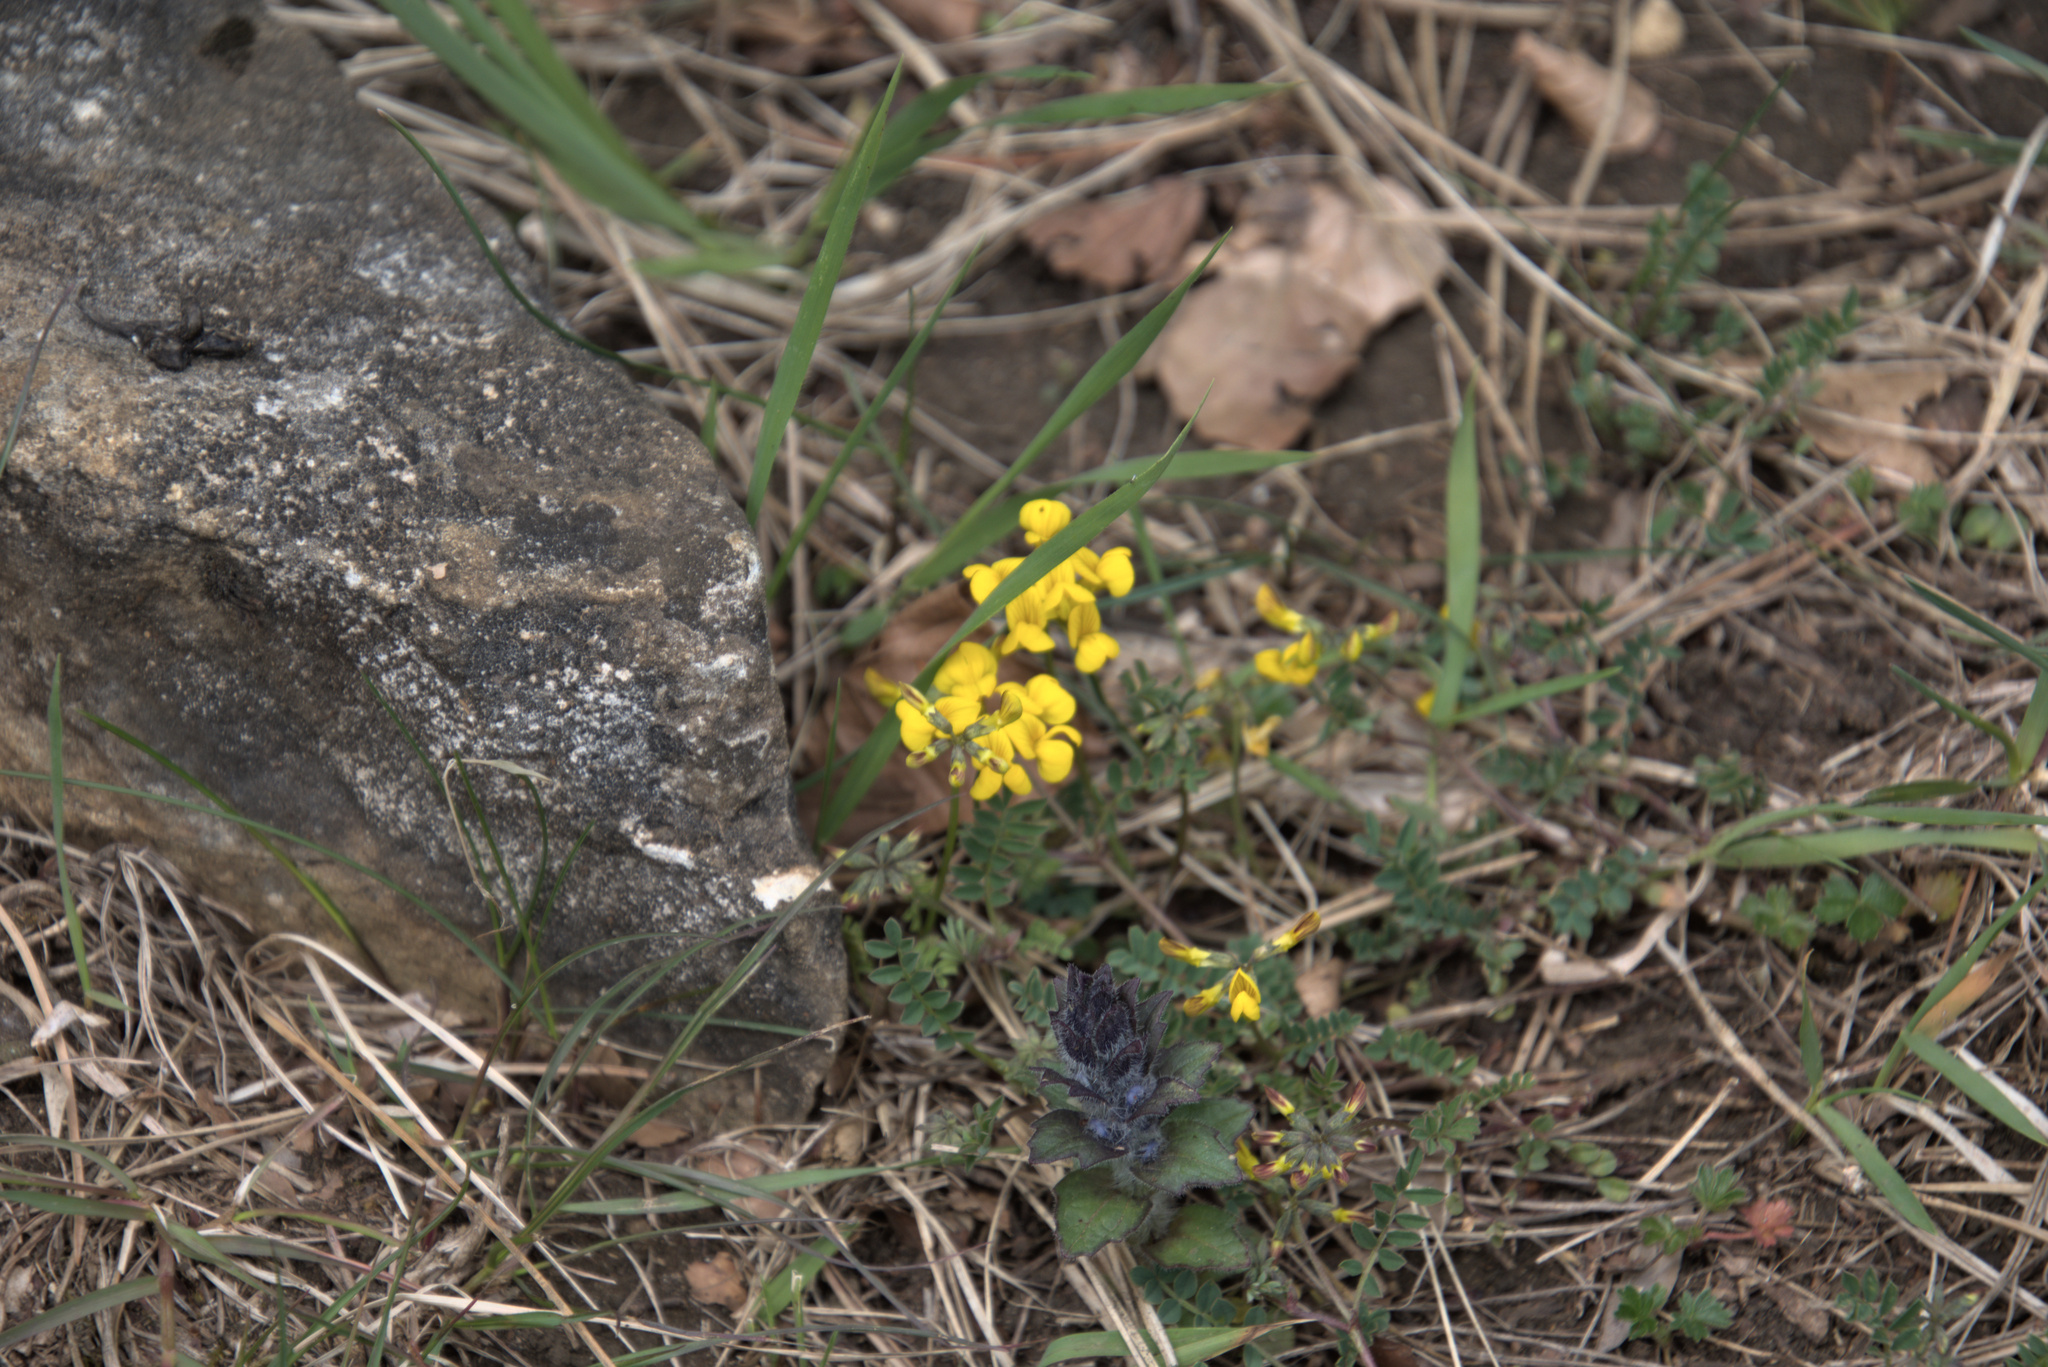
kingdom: Plantae
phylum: Tracheophyta
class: Magnoliopsida
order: Fabales
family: Fabaceae
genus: Hippocrepis
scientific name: Hippocrepis comosa
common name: Horseshoe vetch
